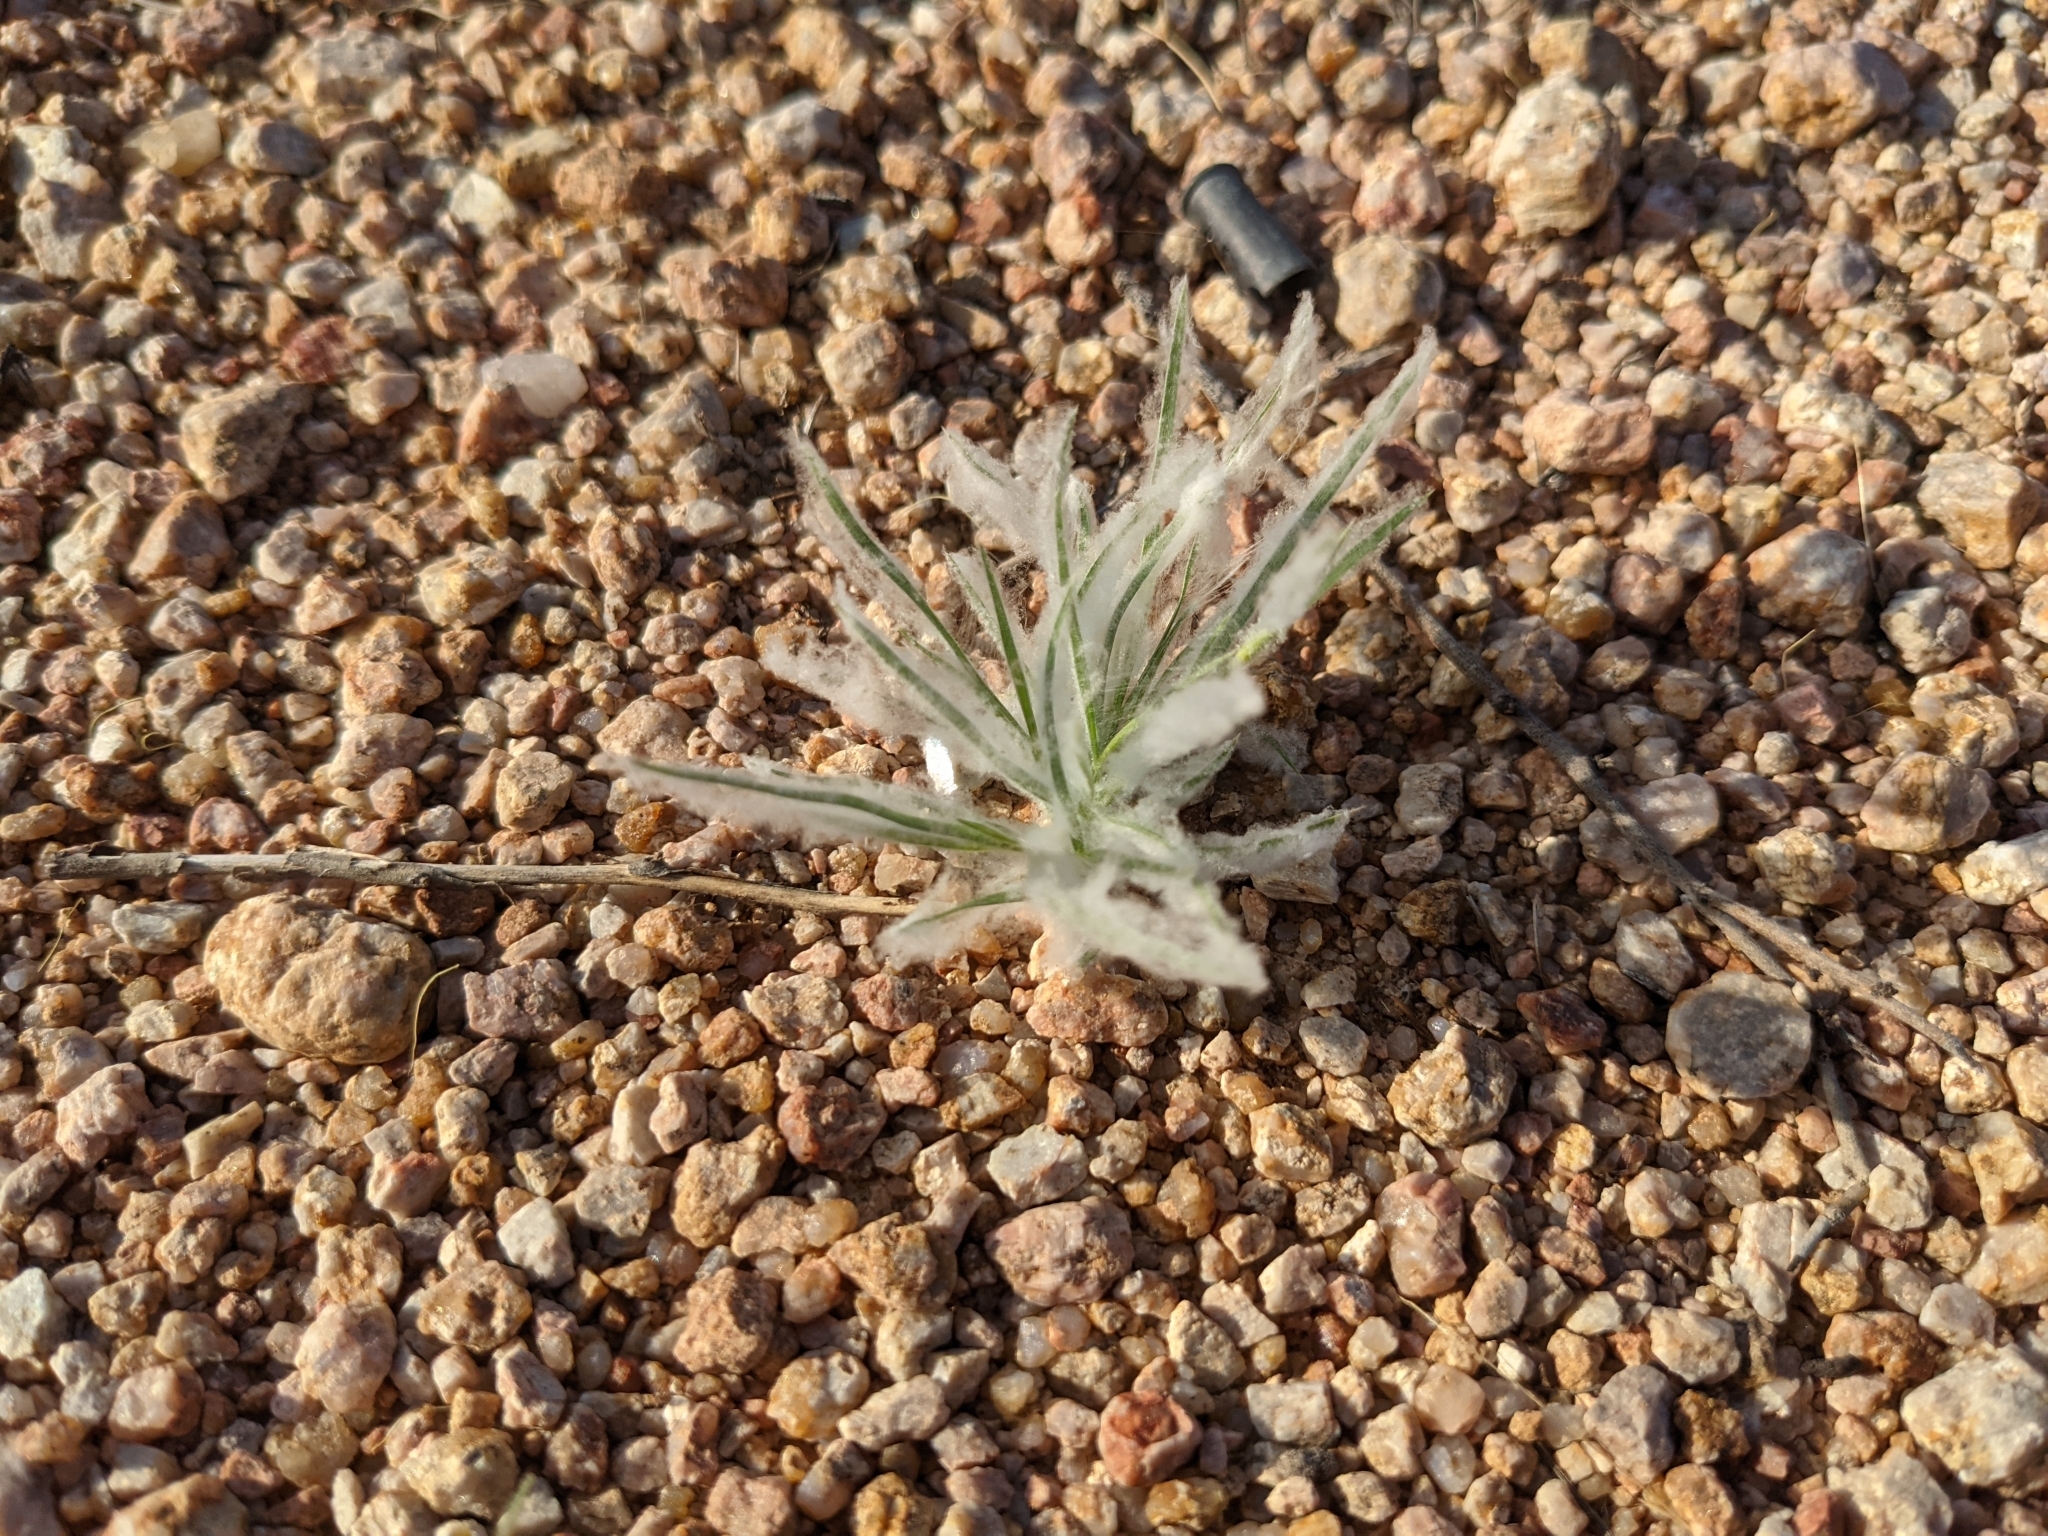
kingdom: Plantae
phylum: Tracheophyta
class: Liliopsida
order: Poales
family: Poaceae
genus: Dasyochloa
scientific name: Dasyochloa pulchella
